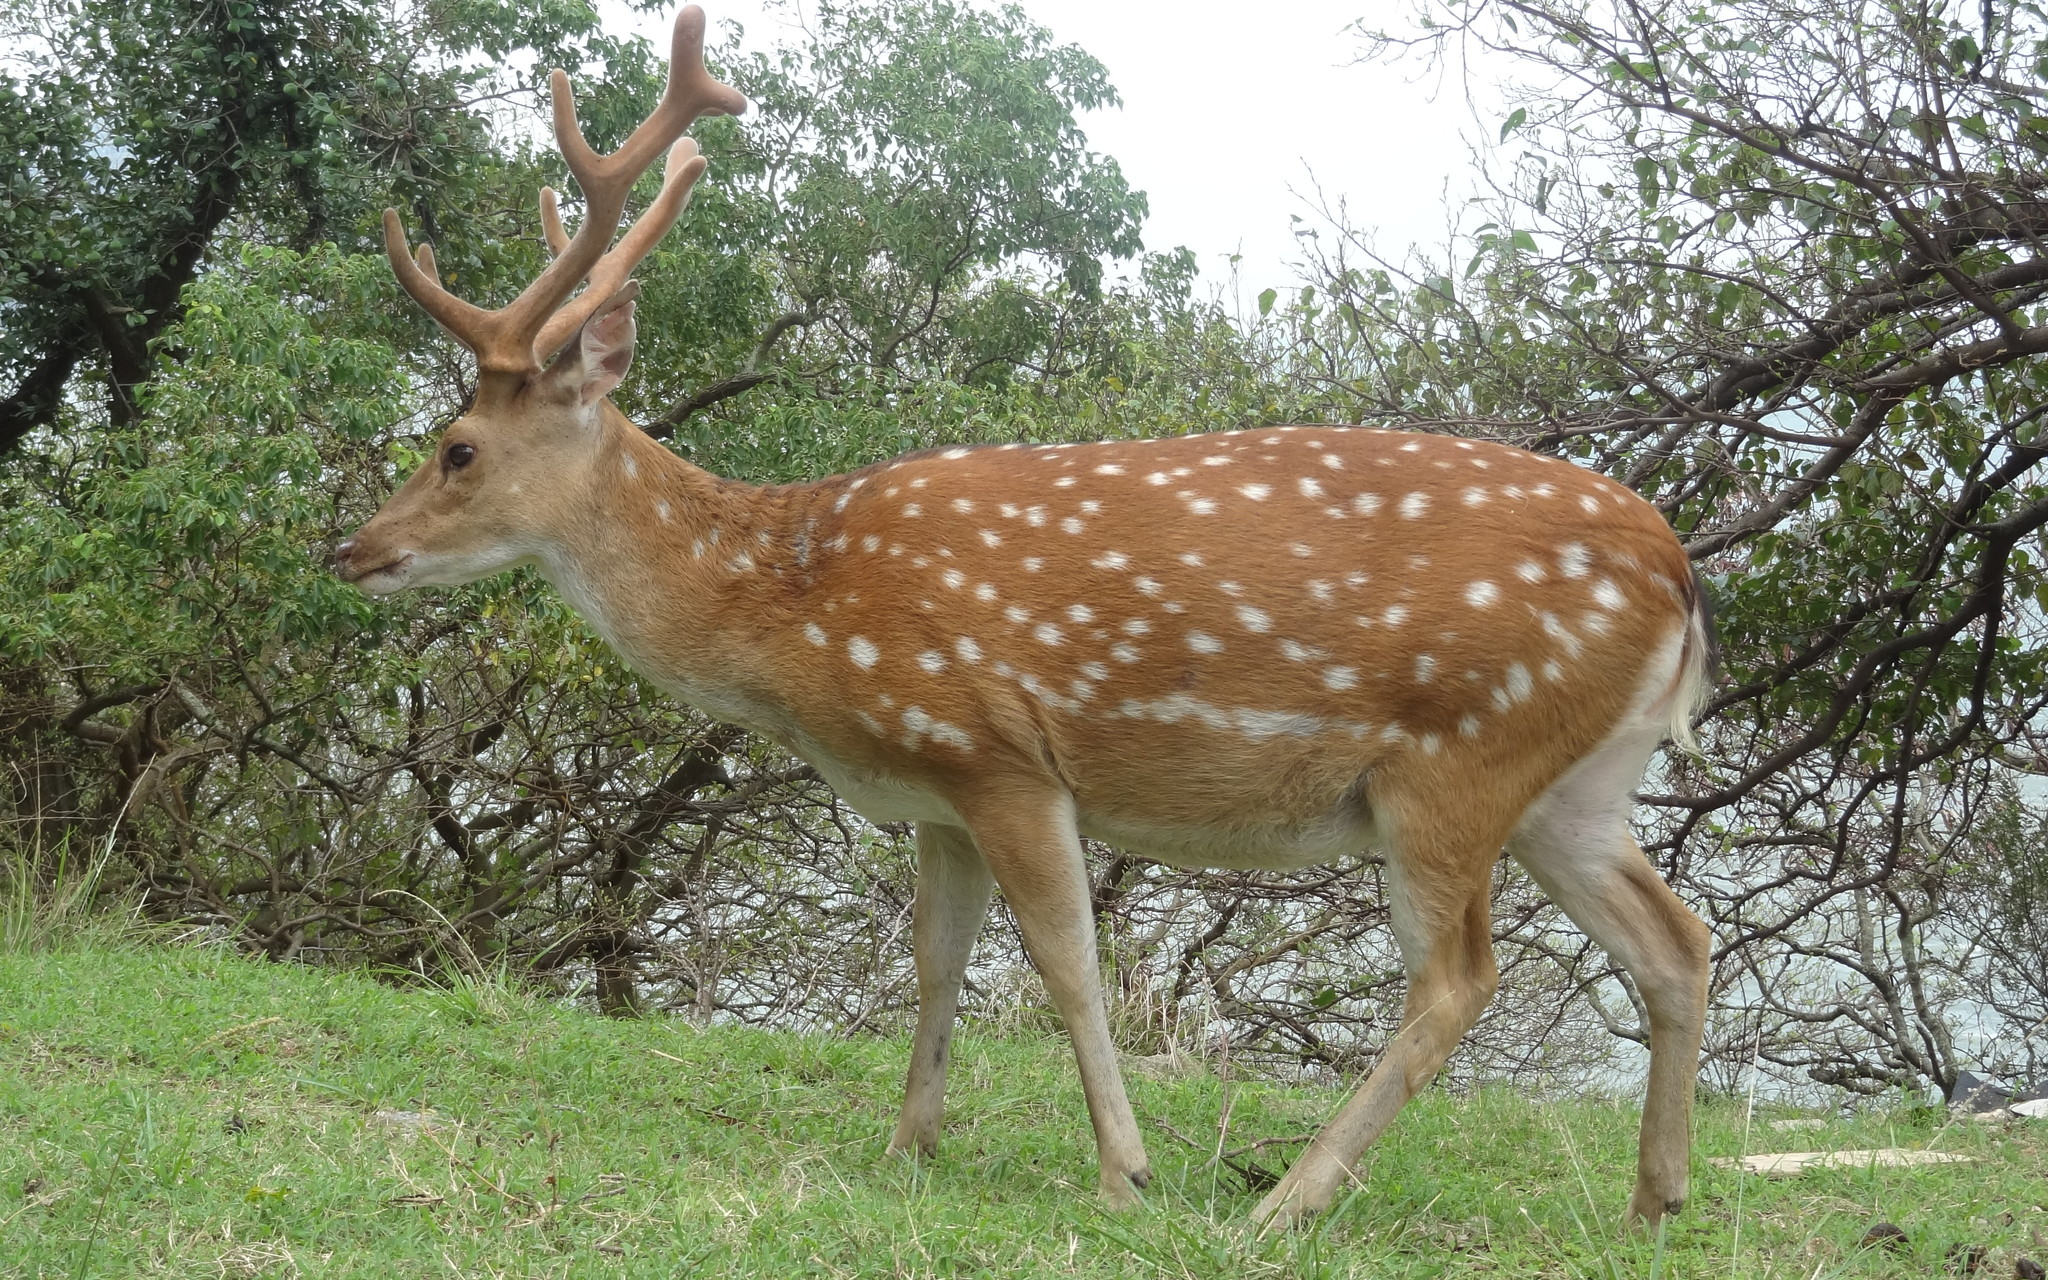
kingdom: Animalia
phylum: Chordata
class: Mammalia
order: Artiodactyla
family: Cervidae
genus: Cervus
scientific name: Cervus nippon
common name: Sika deer
